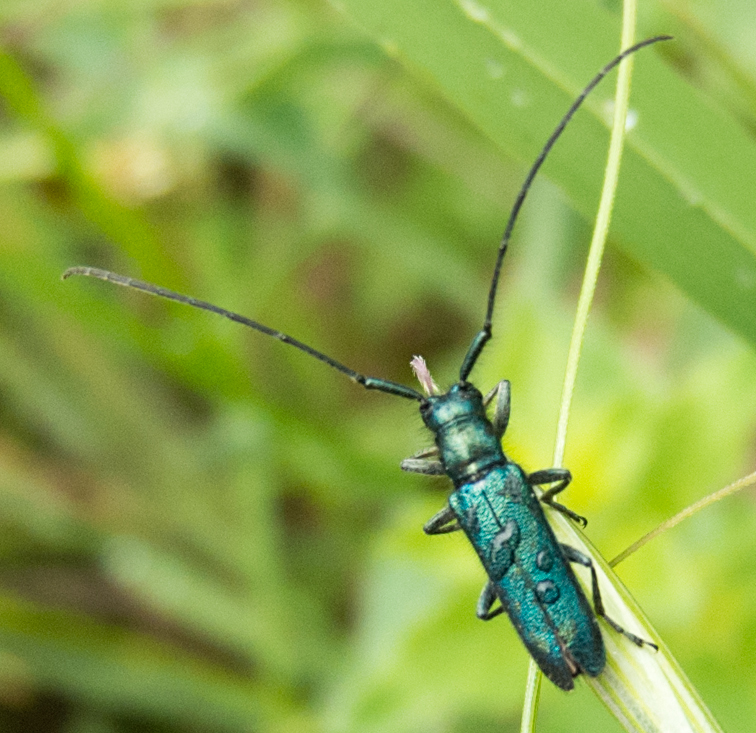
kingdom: Animalia
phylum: Arthropoda
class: Insecta
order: Coleoptera
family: Cerambycidae
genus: Agapanthia
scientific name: Agapanthia violacea
